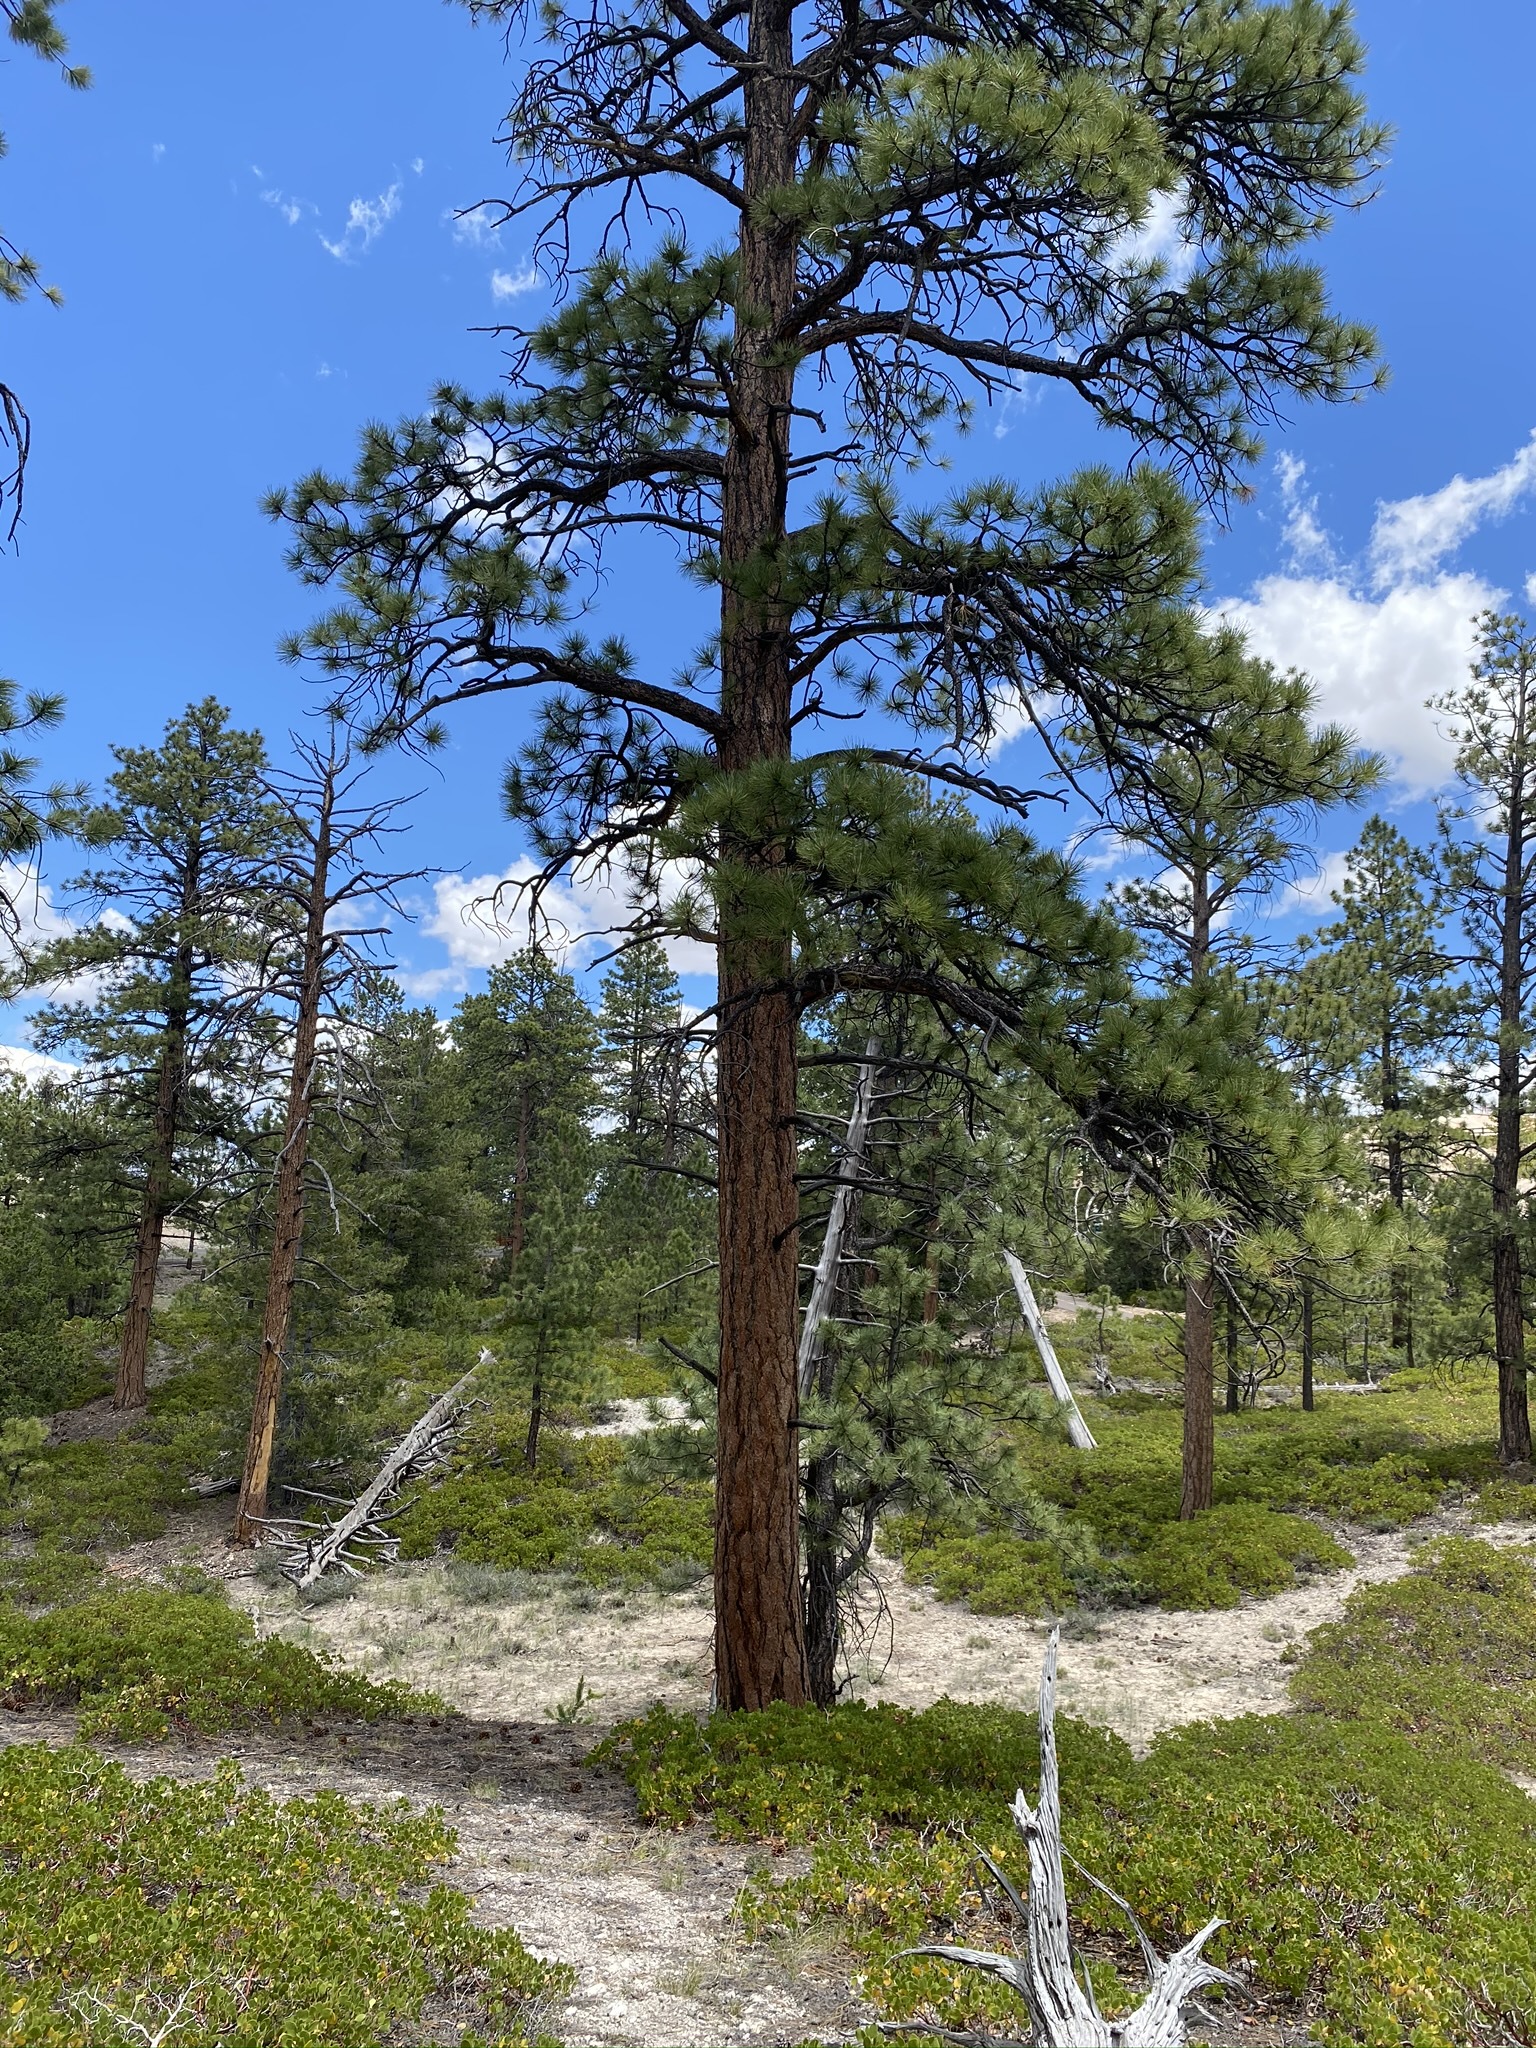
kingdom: Plantae
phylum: Tracheophyta
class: Pinopsida
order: Pinales
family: Pinaceae
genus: Pinus
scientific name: Pinus ponderosa
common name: Western yellow-pine
